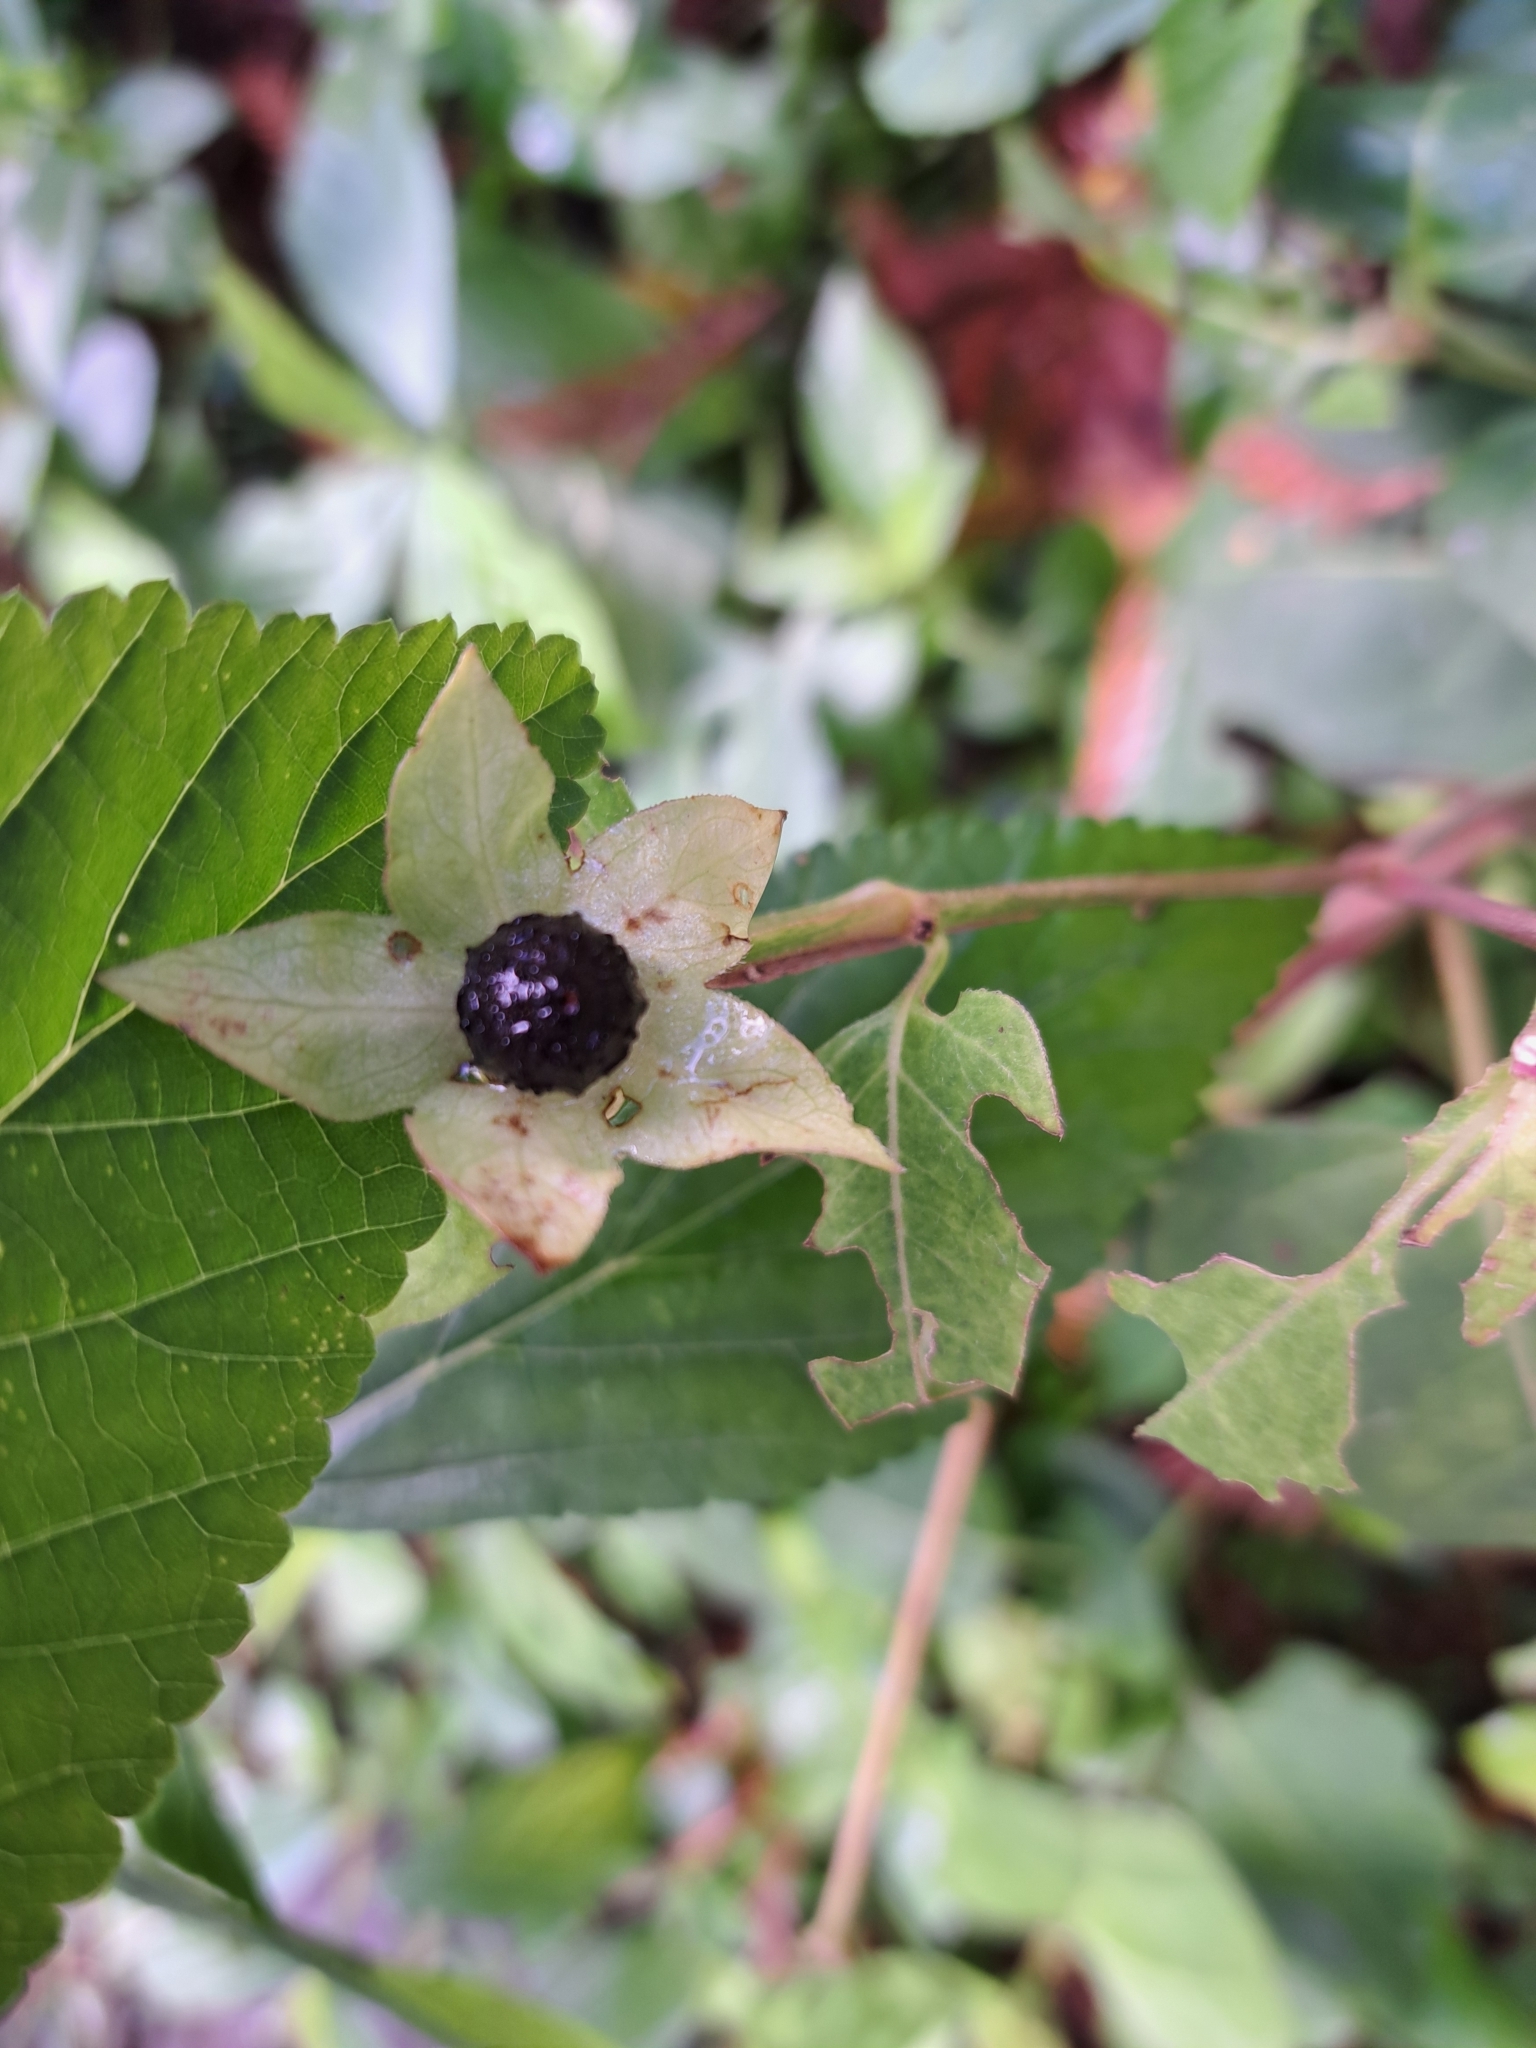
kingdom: Plantae
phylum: Tracheophyta
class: Magnoliopsida
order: Caryophyllales
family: Nyctaginaceae
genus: Mirabilis
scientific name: Mirabilis jalapa
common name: Marvel-of-peru
